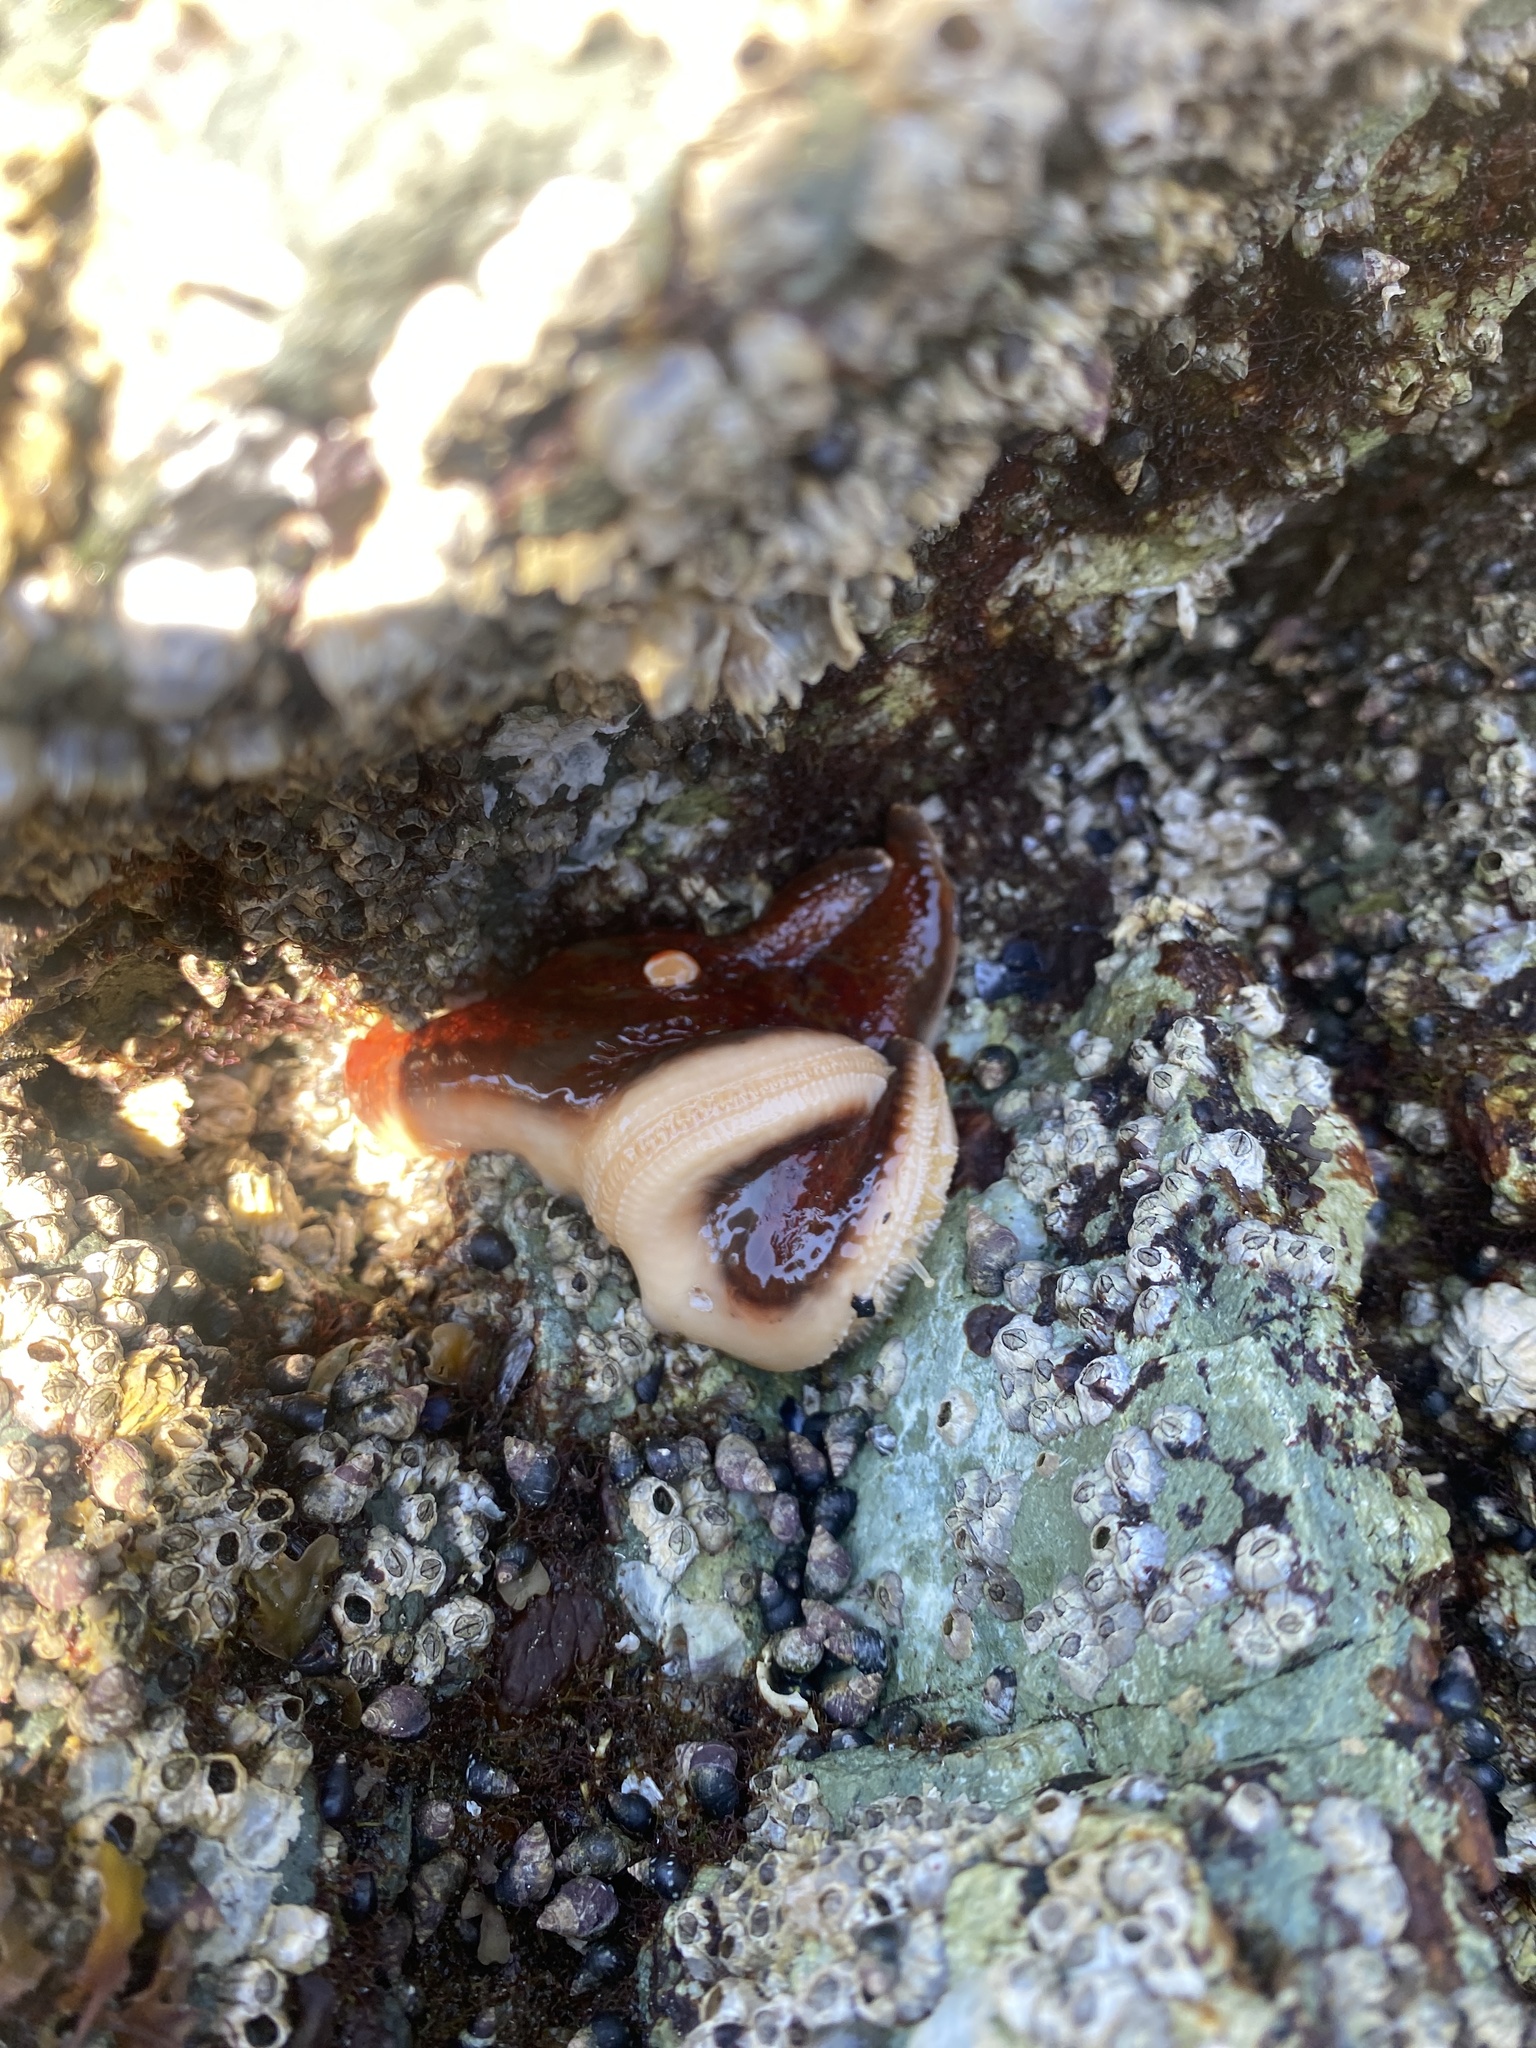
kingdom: Animalia
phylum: Echinodermata
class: Asteroidea
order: Valvatida
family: Asteropseidae
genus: Dermasterias
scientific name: Dermasterias imbricata
